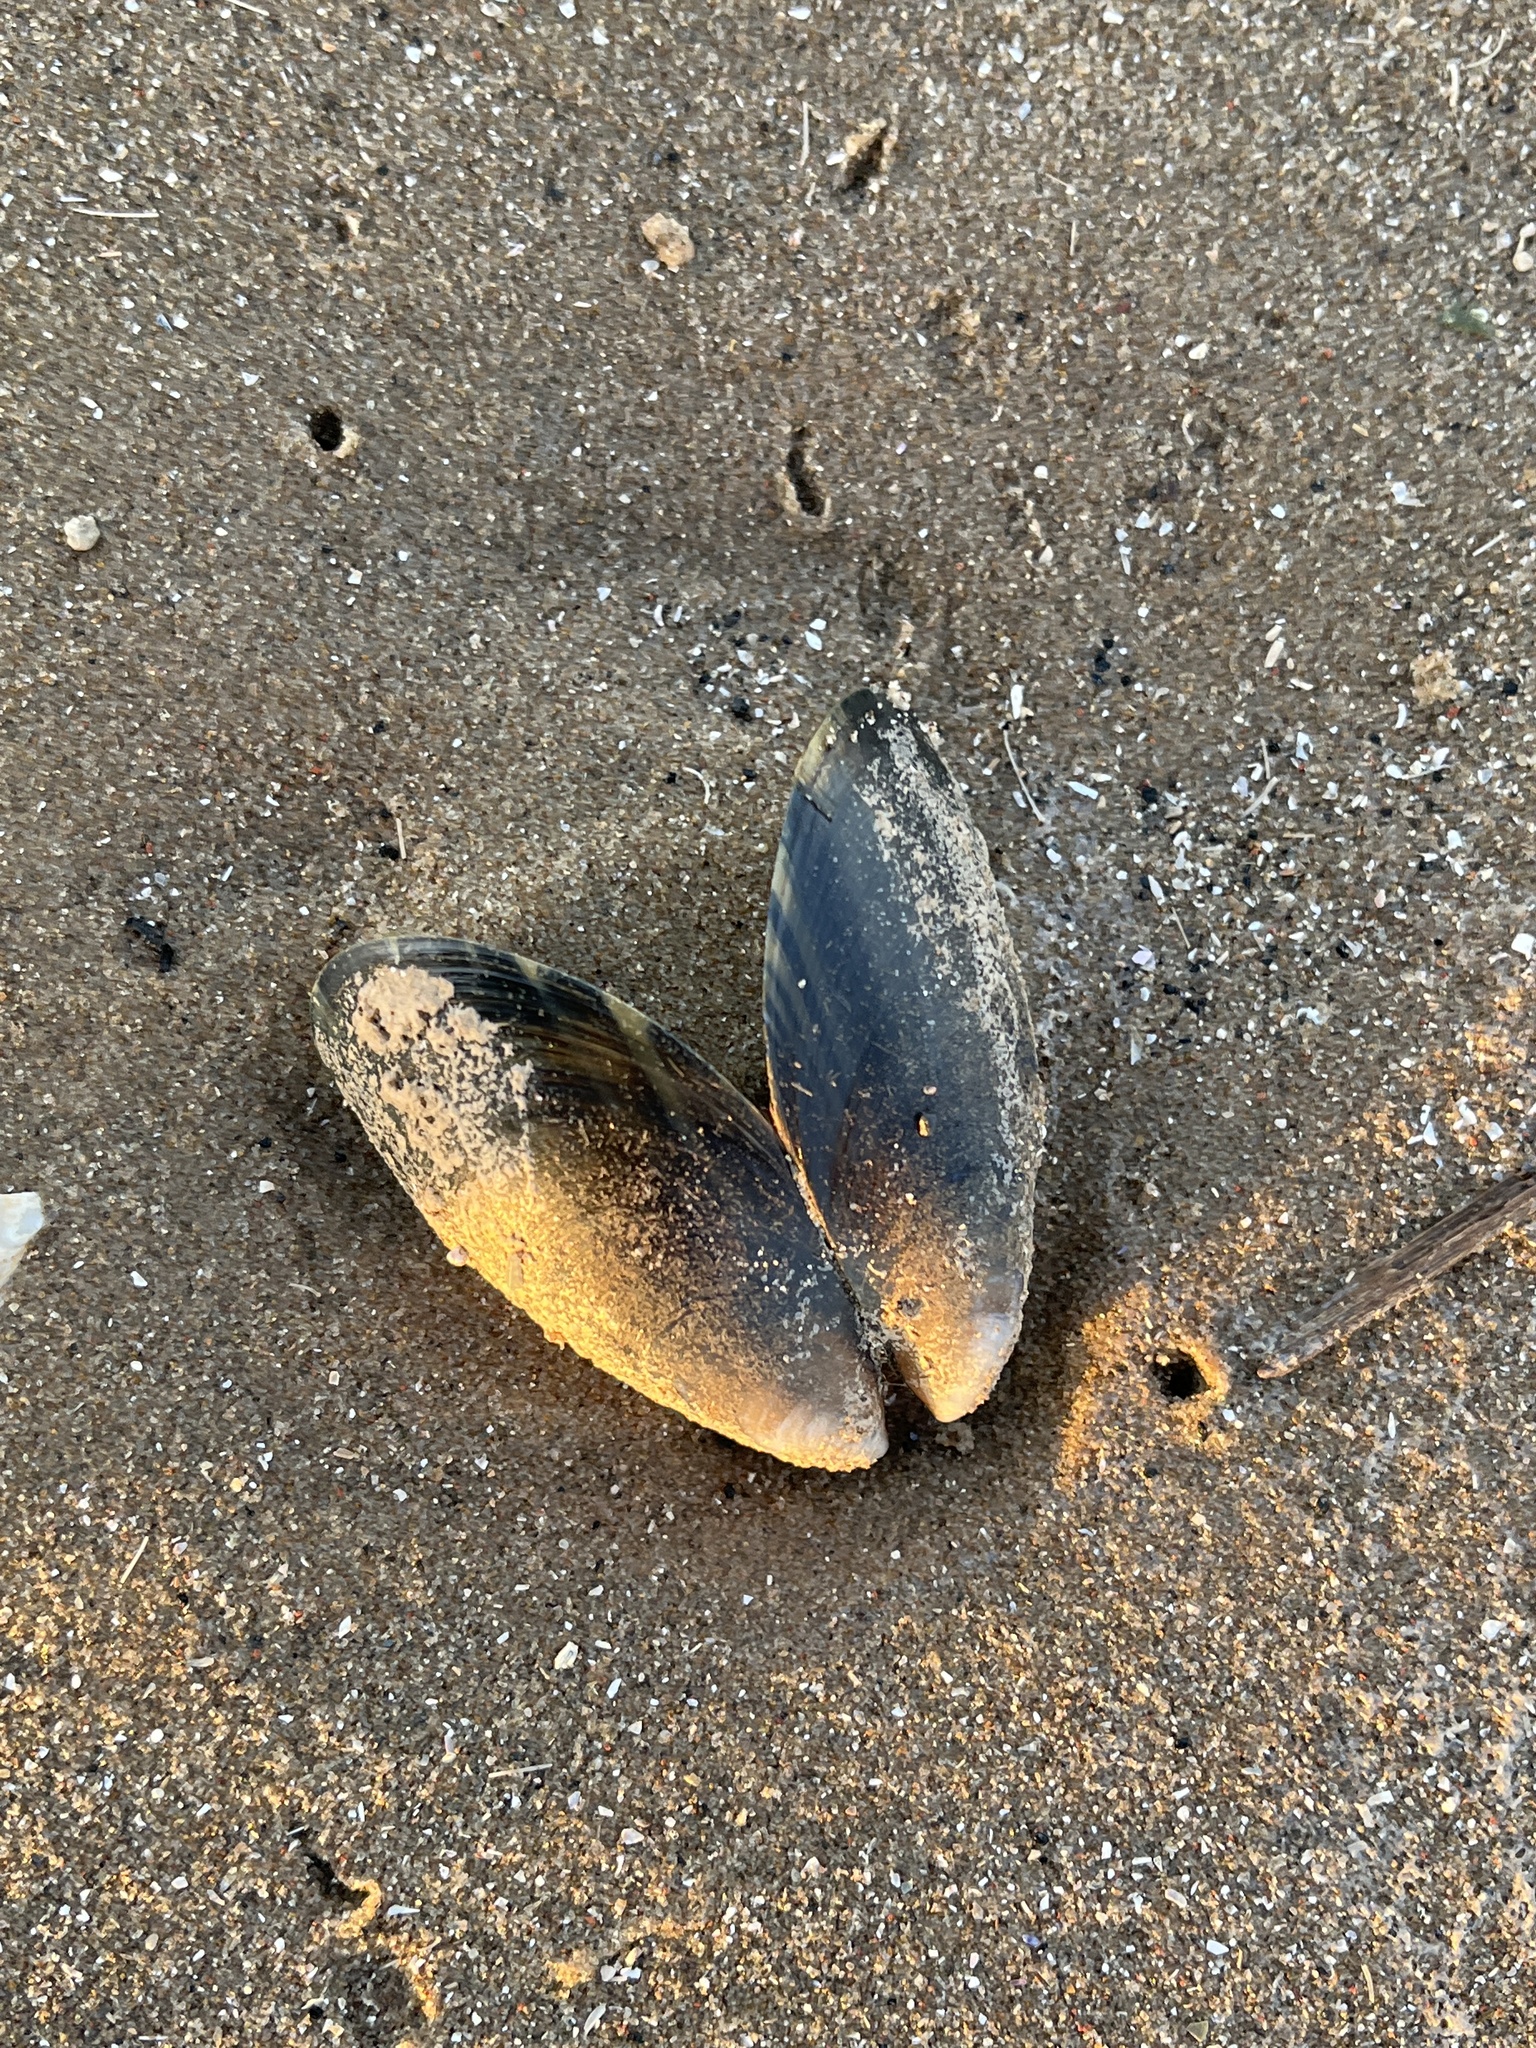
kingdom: Animalia
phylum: Mollusca
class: Bivalvia
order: Mytilida
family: Mytilidae
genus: Mytilus
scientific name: Mytilus edulis
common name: Blue mussel
